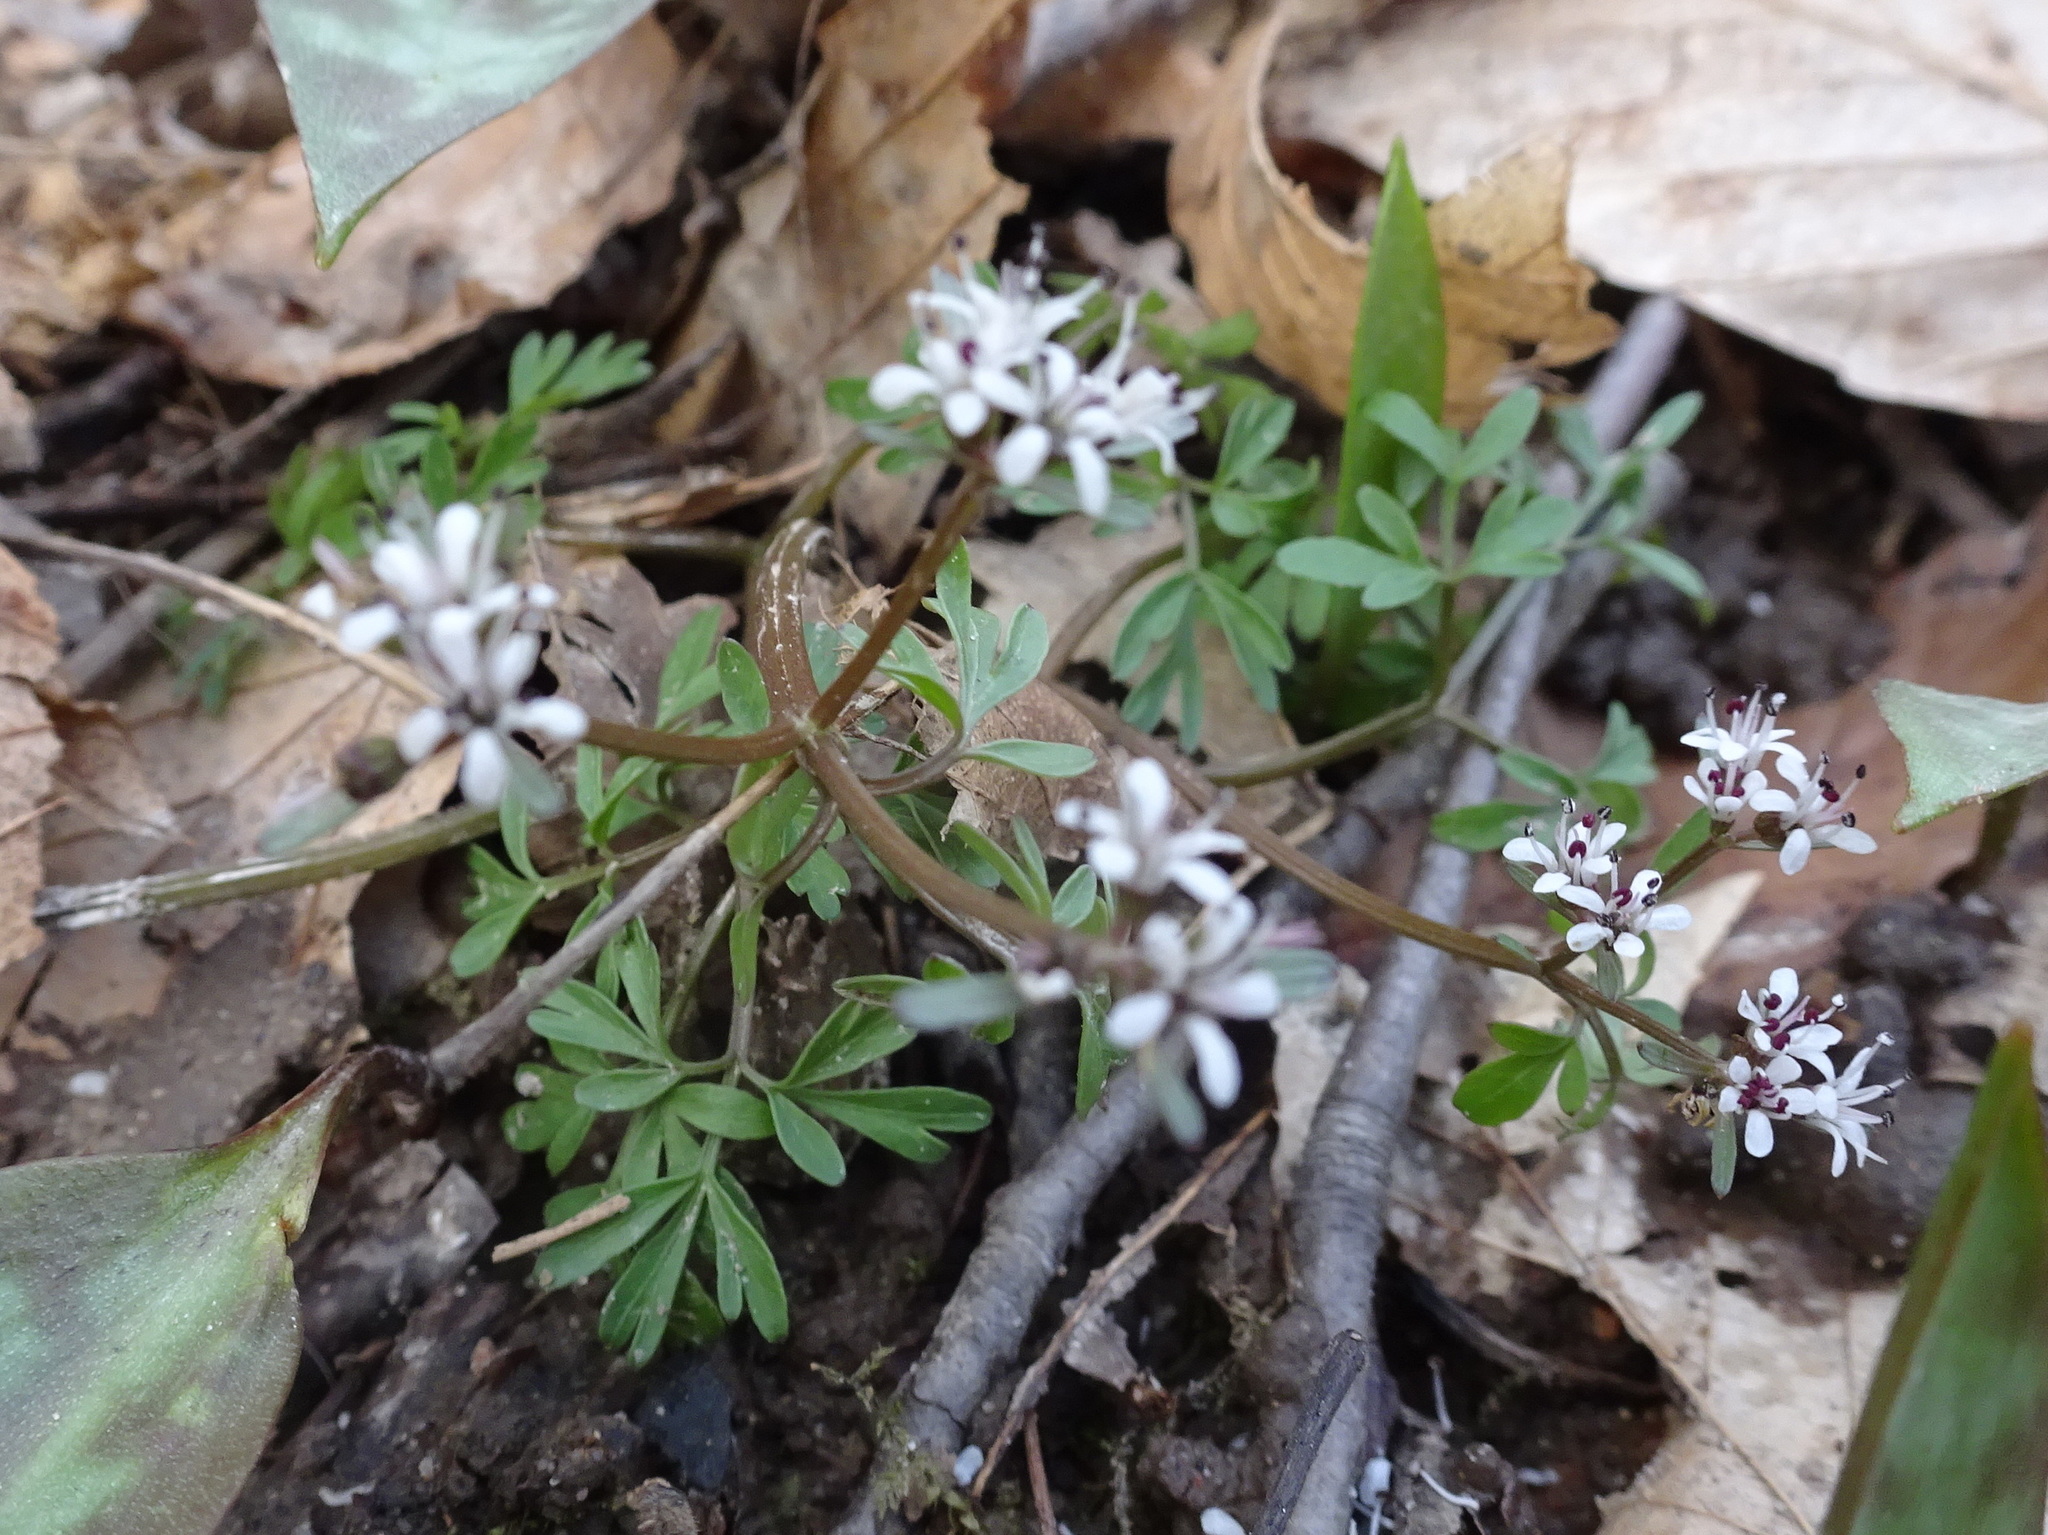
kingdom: Plantae
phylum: Tracheophyta
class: Magnoliopsida
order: Apiales
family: Apiaceae
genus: Erigenia
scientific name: Erigenia bulbosa
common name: Pepper-and-salt
